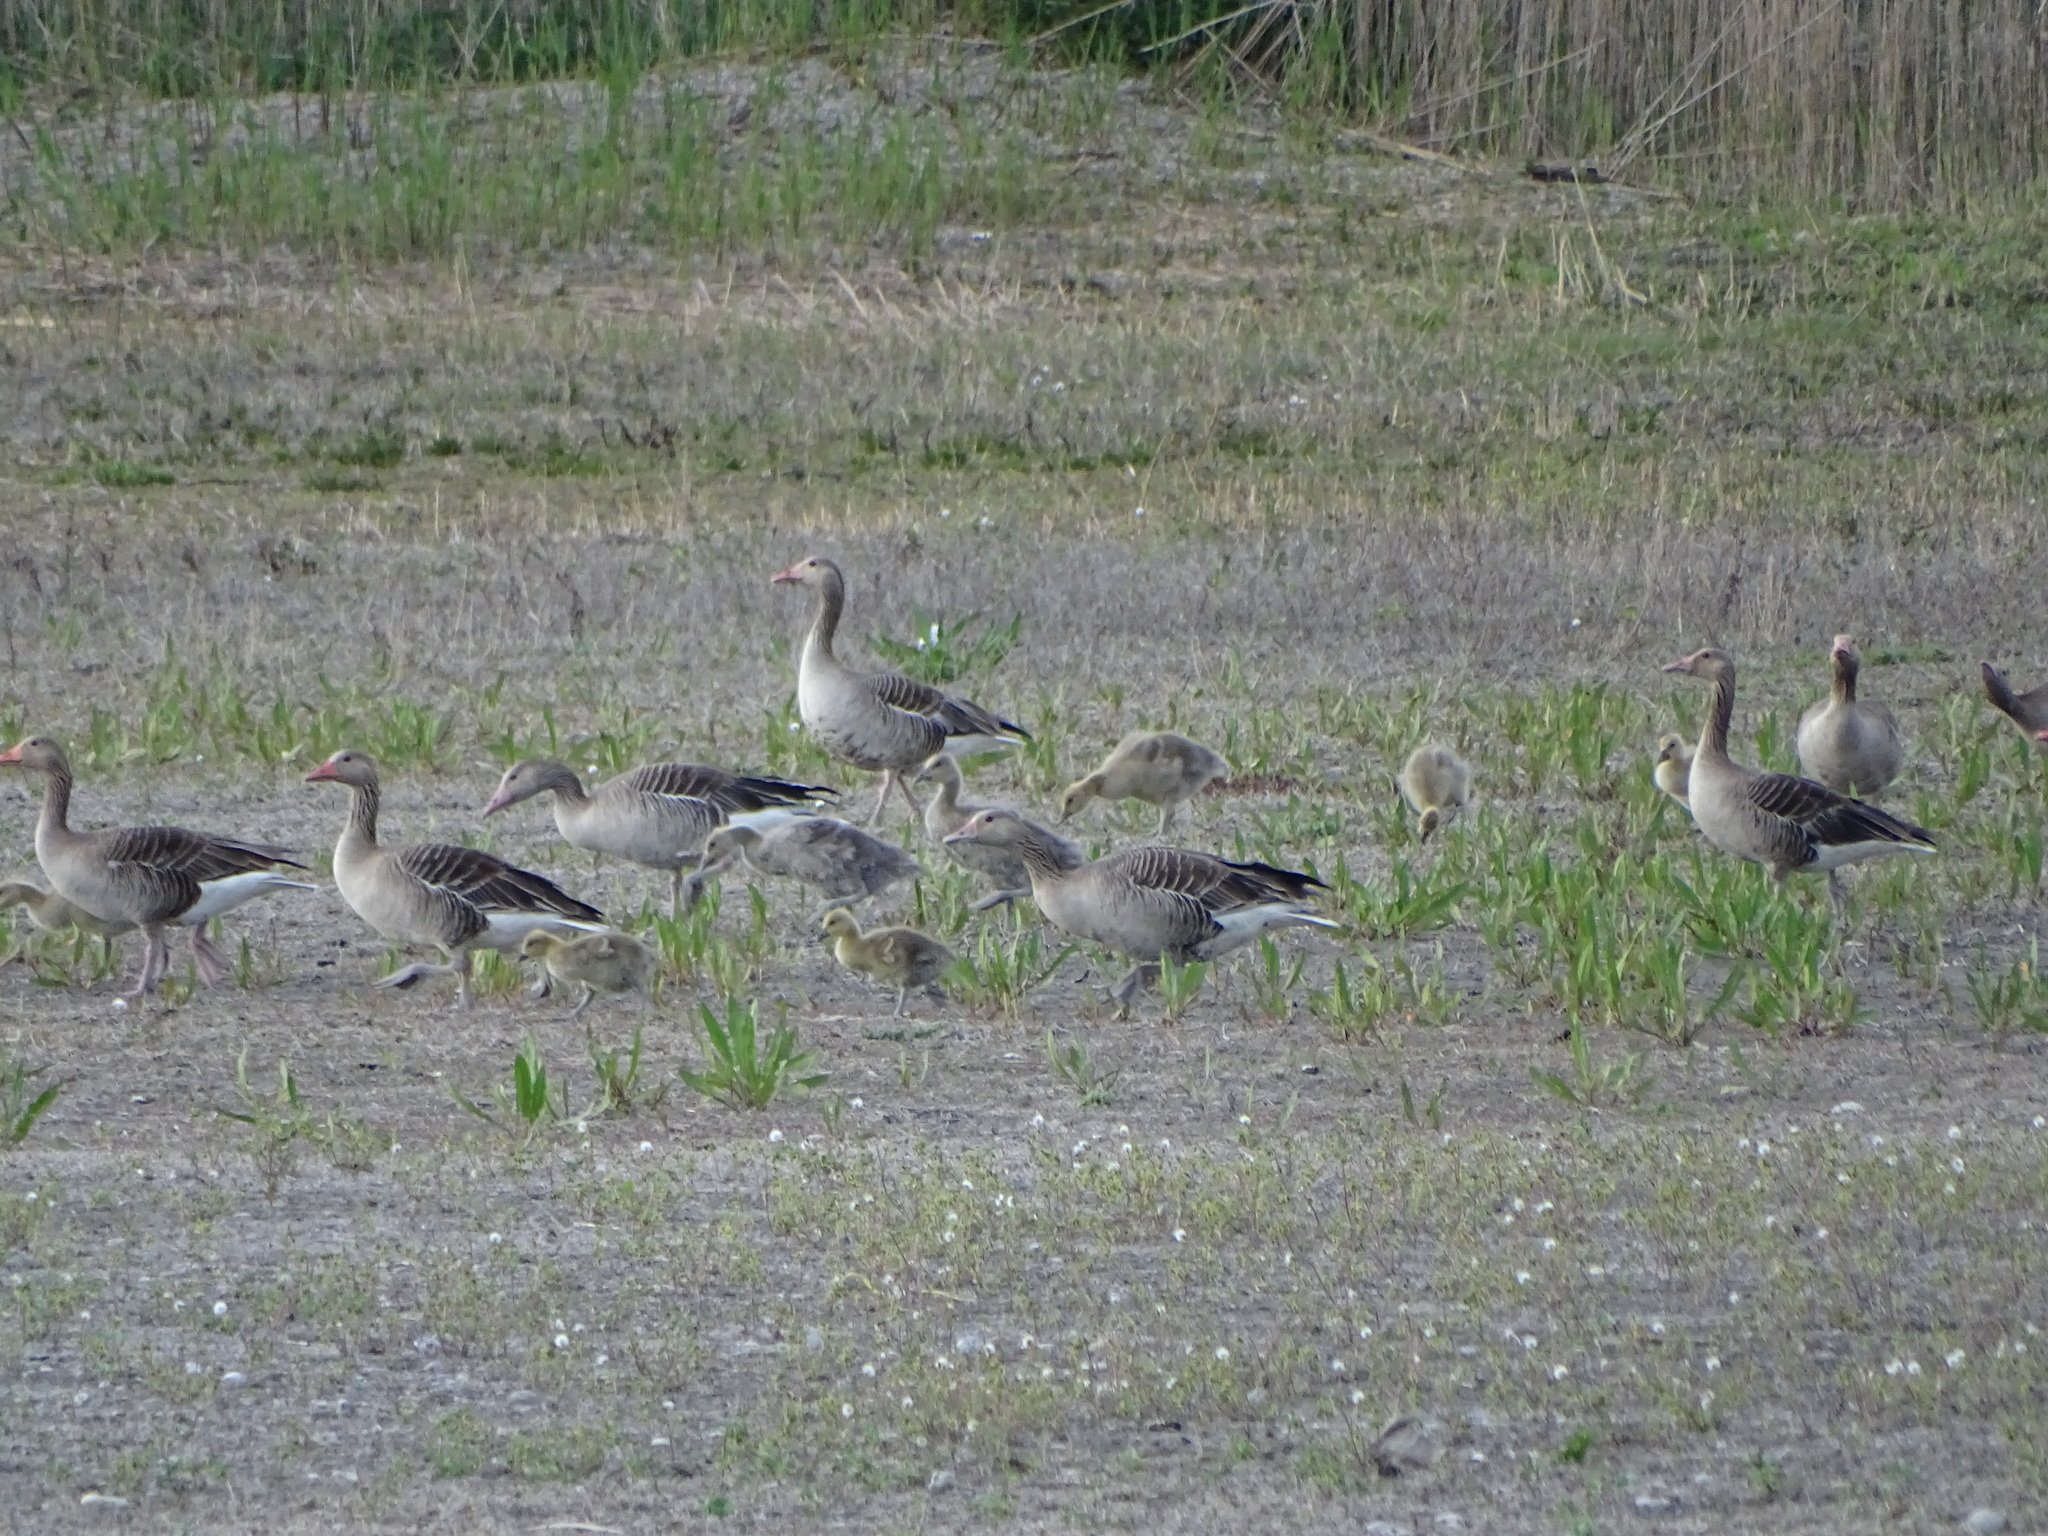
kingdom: Animalia
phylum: Chordata
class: Aves
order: Anseriformes
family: Anatidae
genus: Anser
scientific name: Anser anser
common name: Greylag goose
